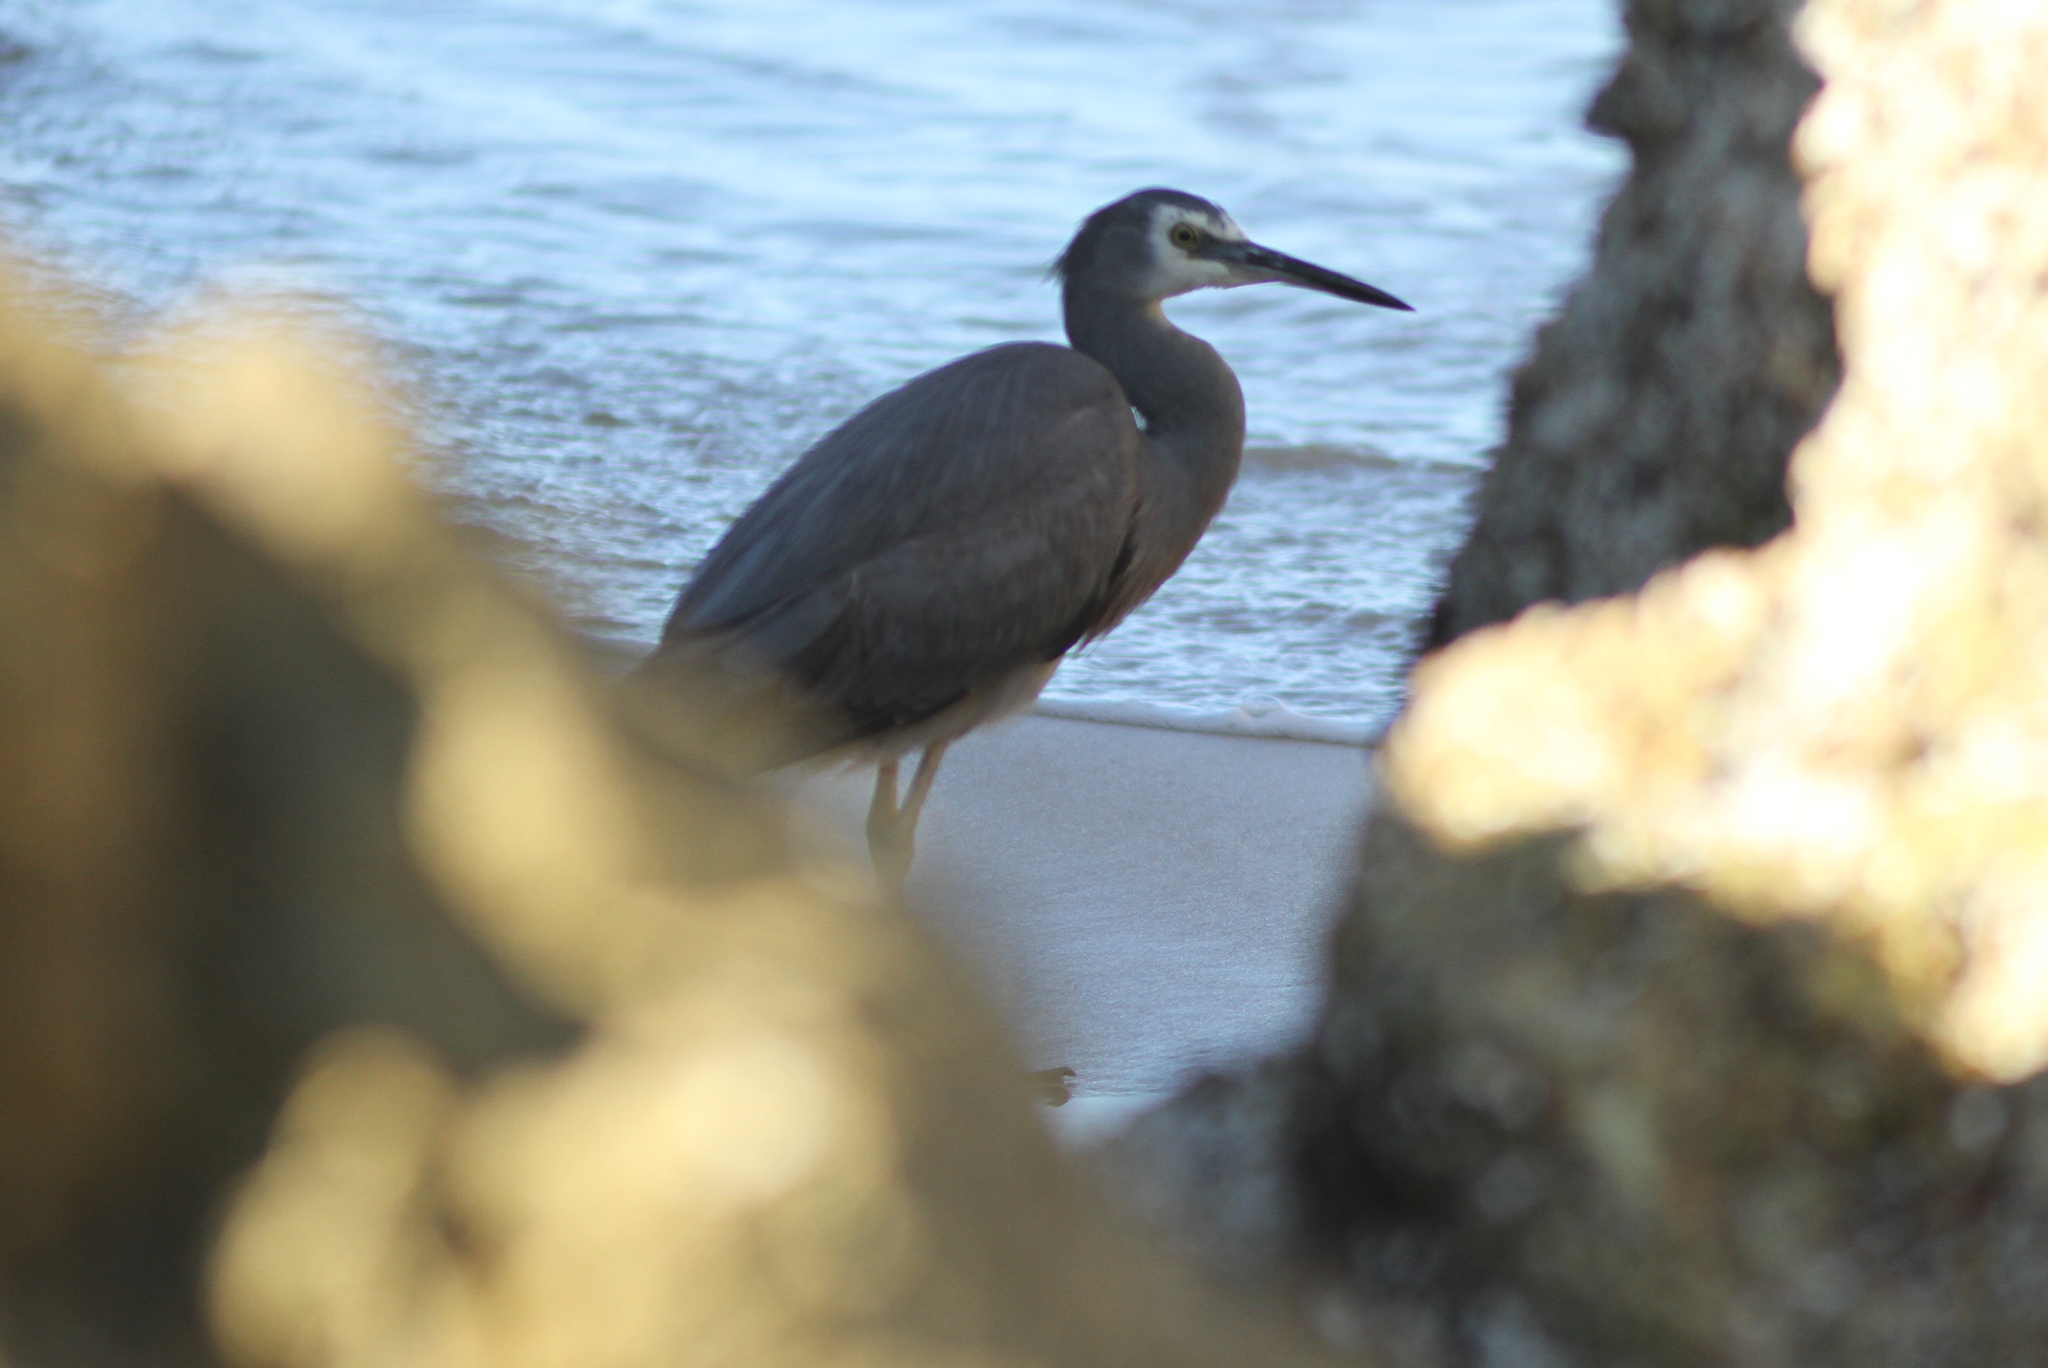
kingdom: Animalia
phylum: Chordata
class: Aves
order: Pelecaniformes
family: Ardeidae
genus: Egretta
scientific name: Egretta novaehollandiae
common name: White-faced heron
